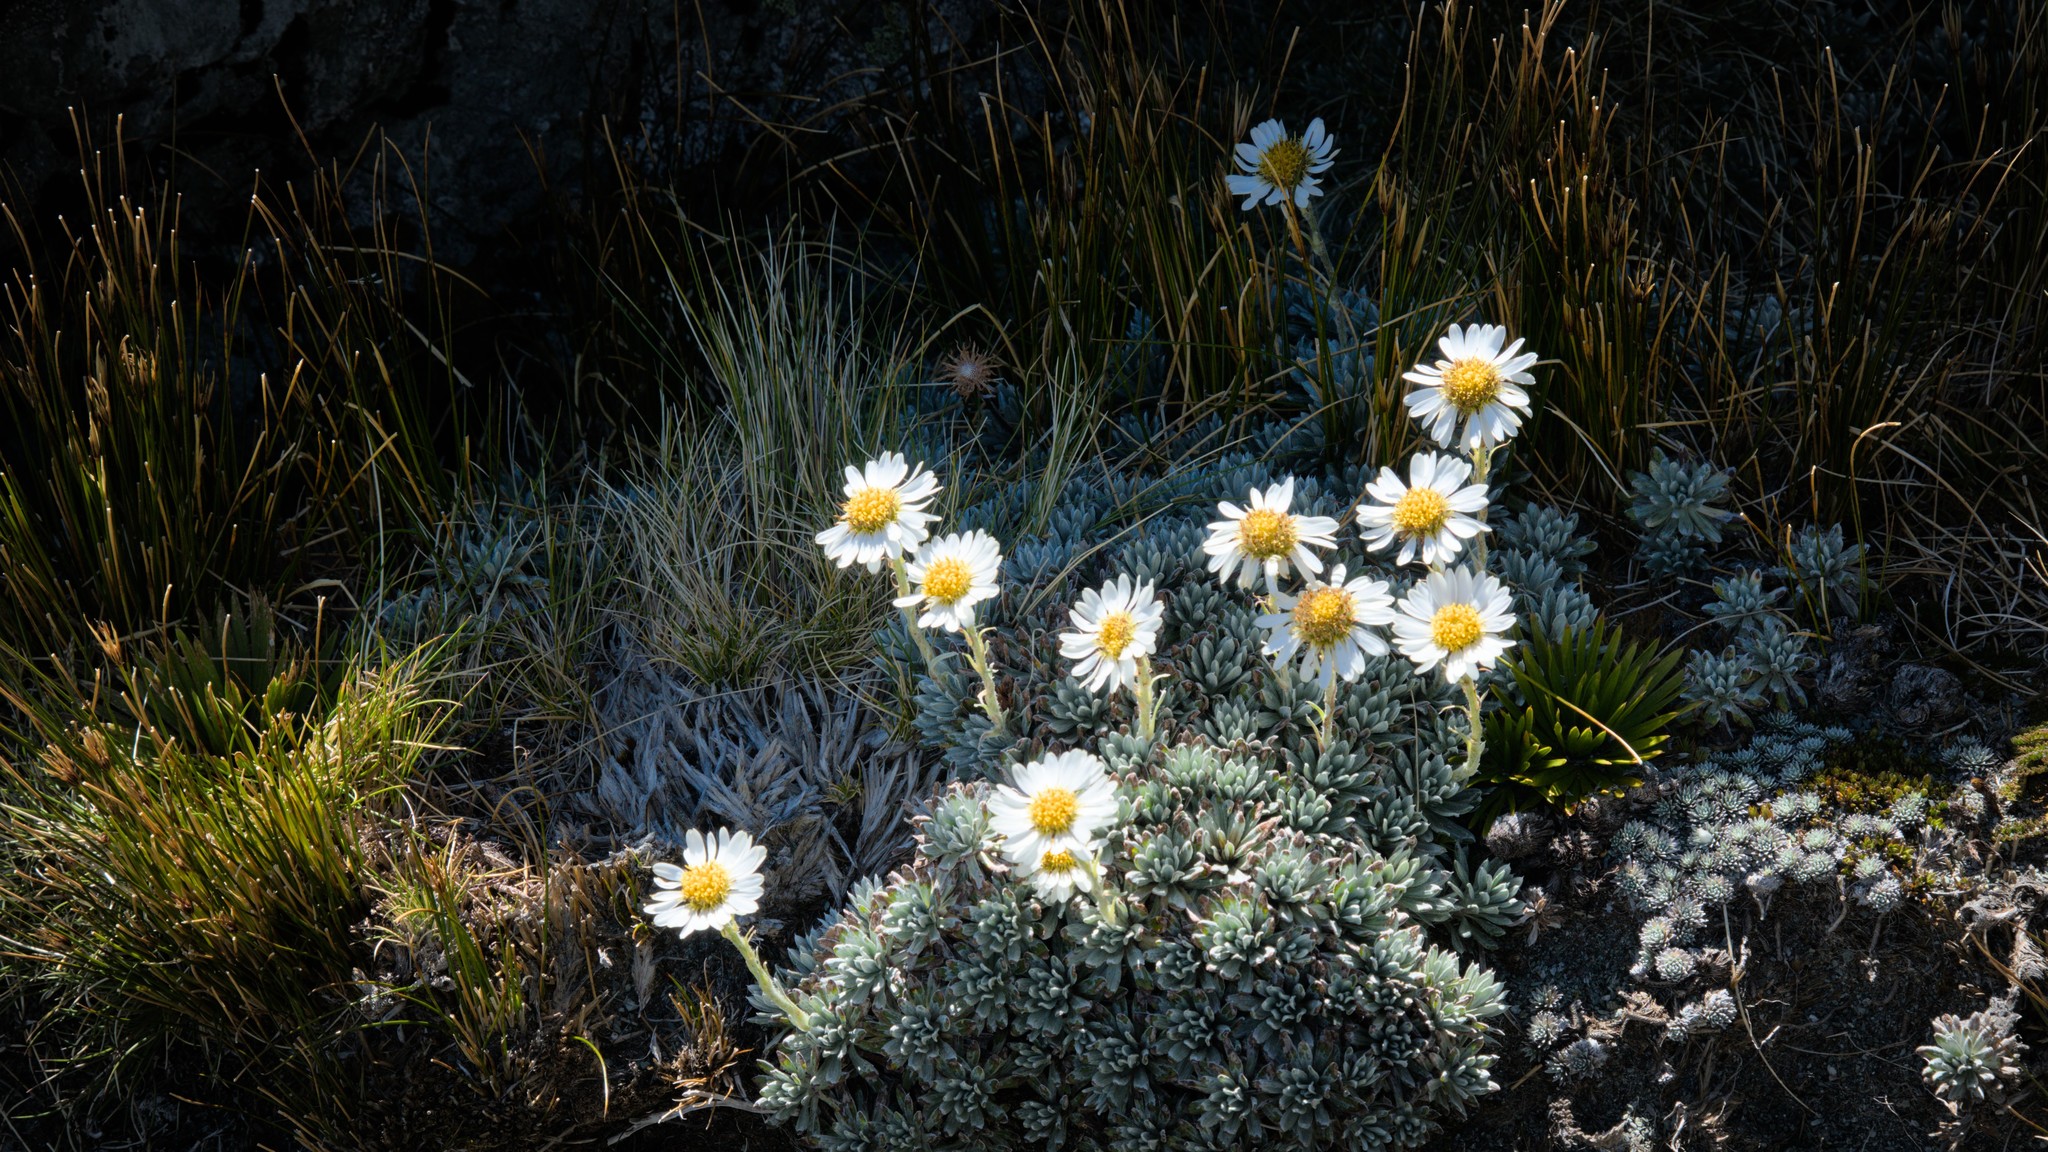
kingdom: Plantae
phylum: Tracheophyta
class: Magnoliopsida
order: Asterales
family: Asteraceae
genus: Celmisia
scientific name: Celmisia hectorii
